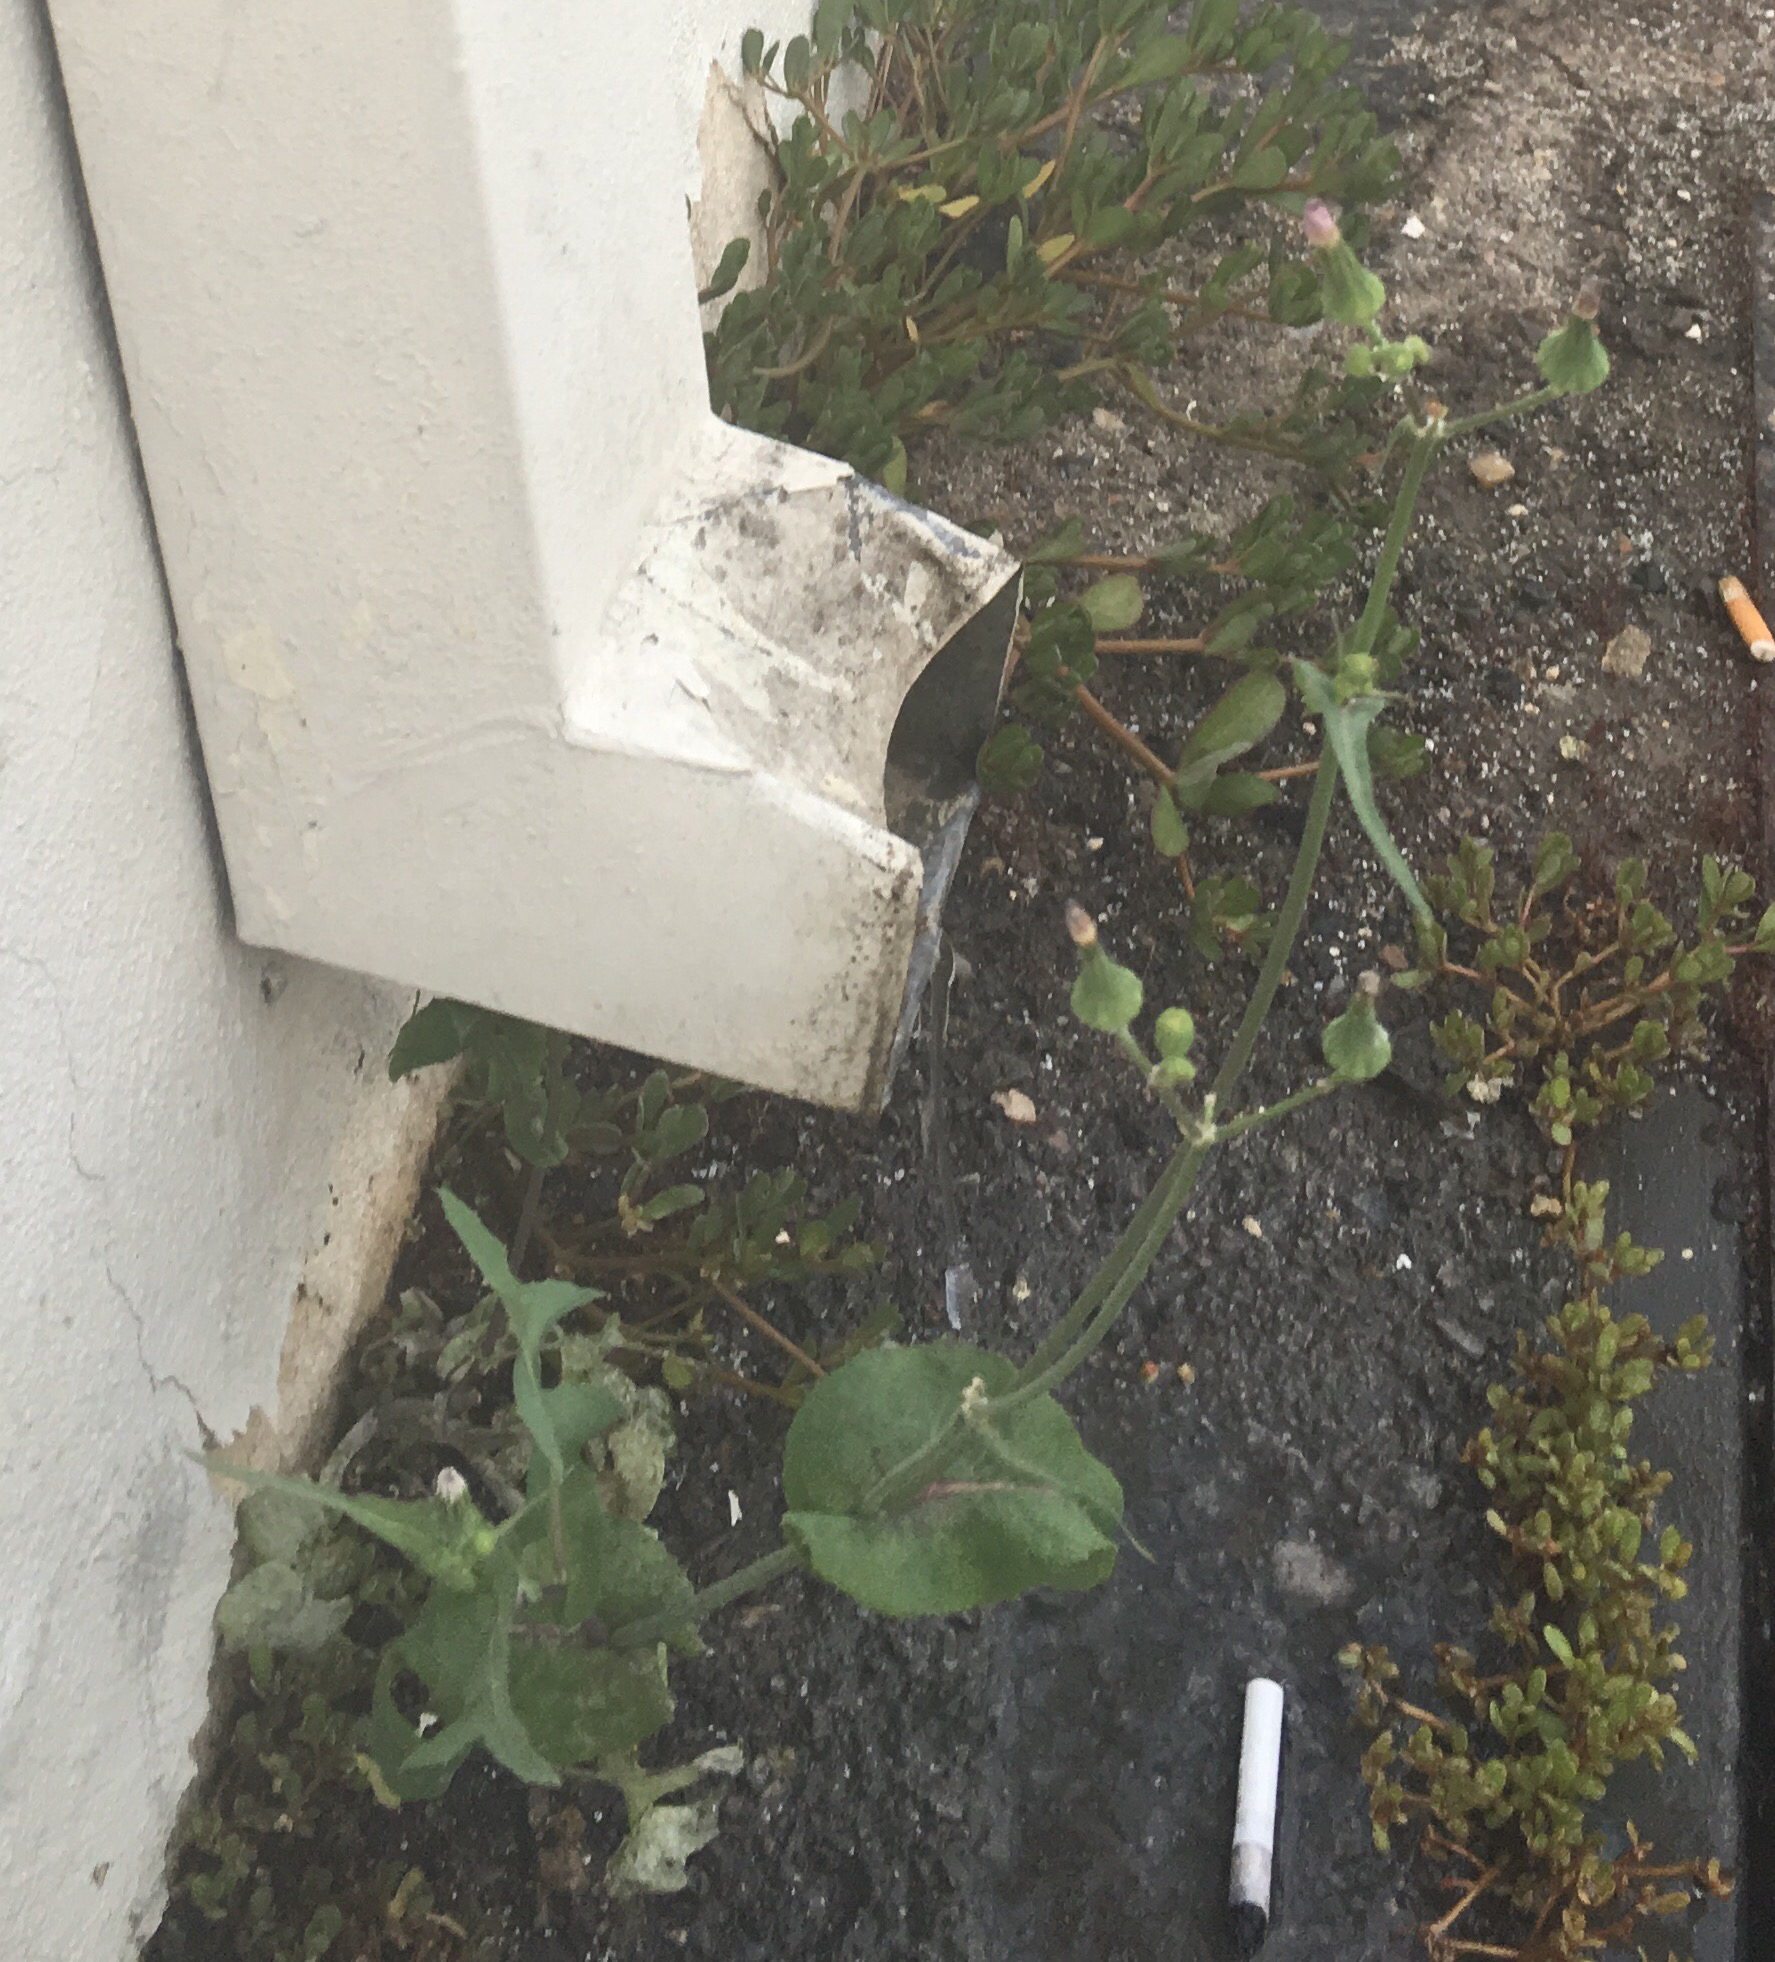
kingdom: Plantae
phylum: Tracheophyta
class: Magnoliopsida
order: Asterales
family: Asteraceae
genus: Sonchus
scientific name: Sonchus oleraceus
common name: Common sowthistle
